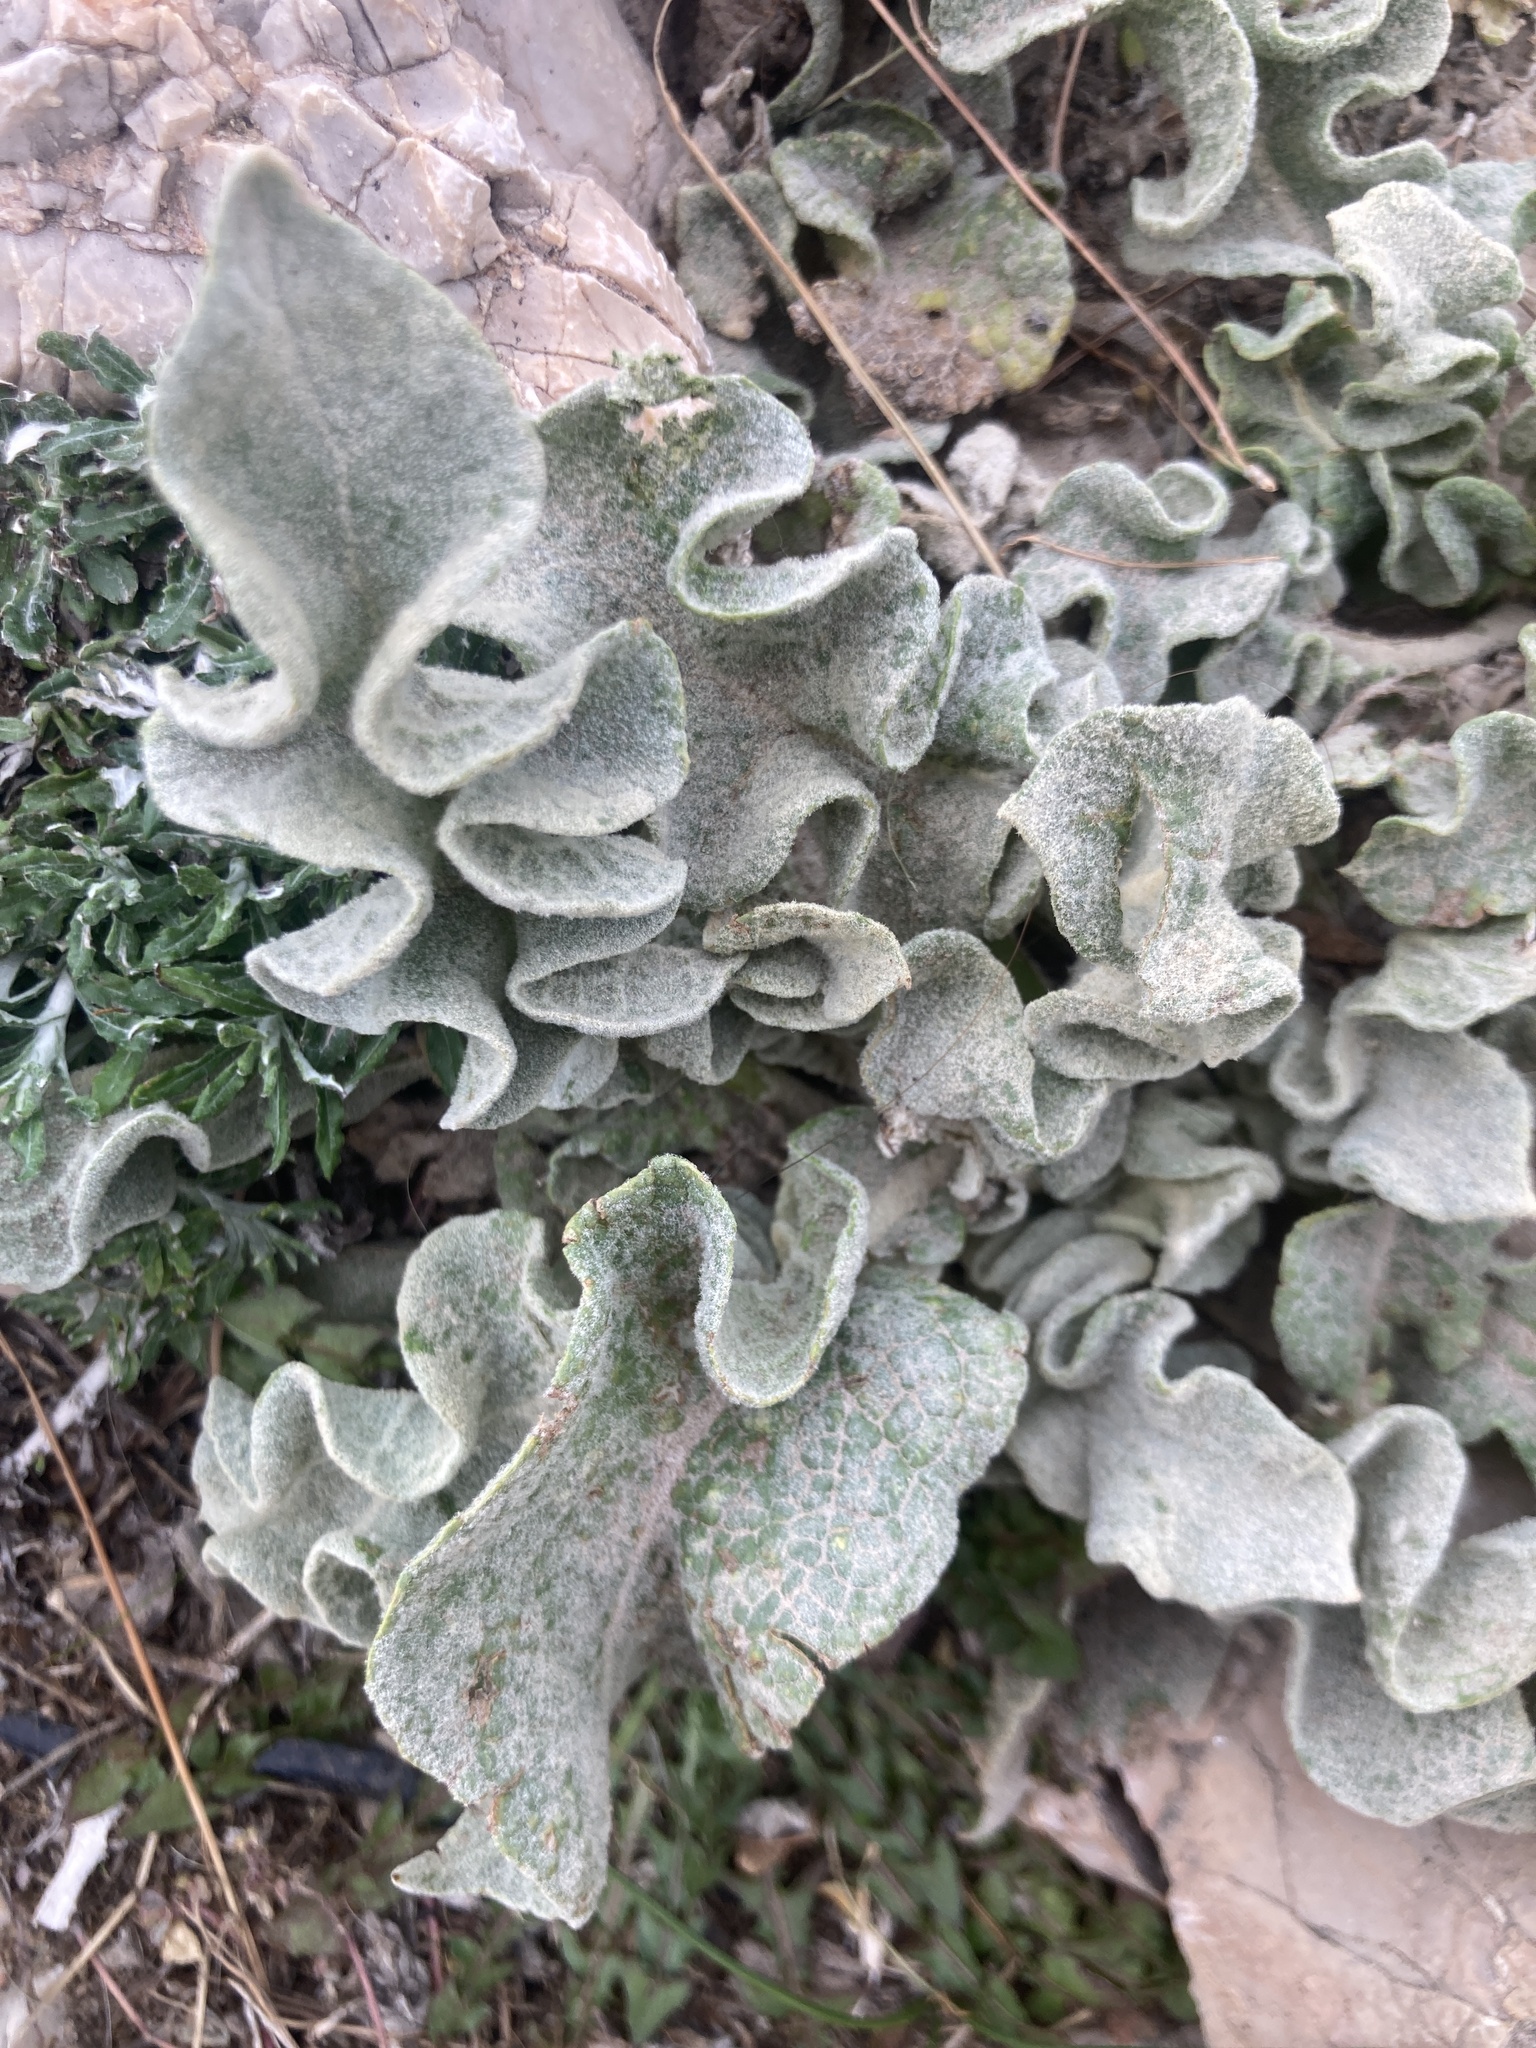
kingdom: Plantae
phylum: Tracheophyta
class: Magnoliopsida
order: Lamiales
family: Scrophulariaceae
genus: Verbascum
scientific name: Verbascum undulatum
